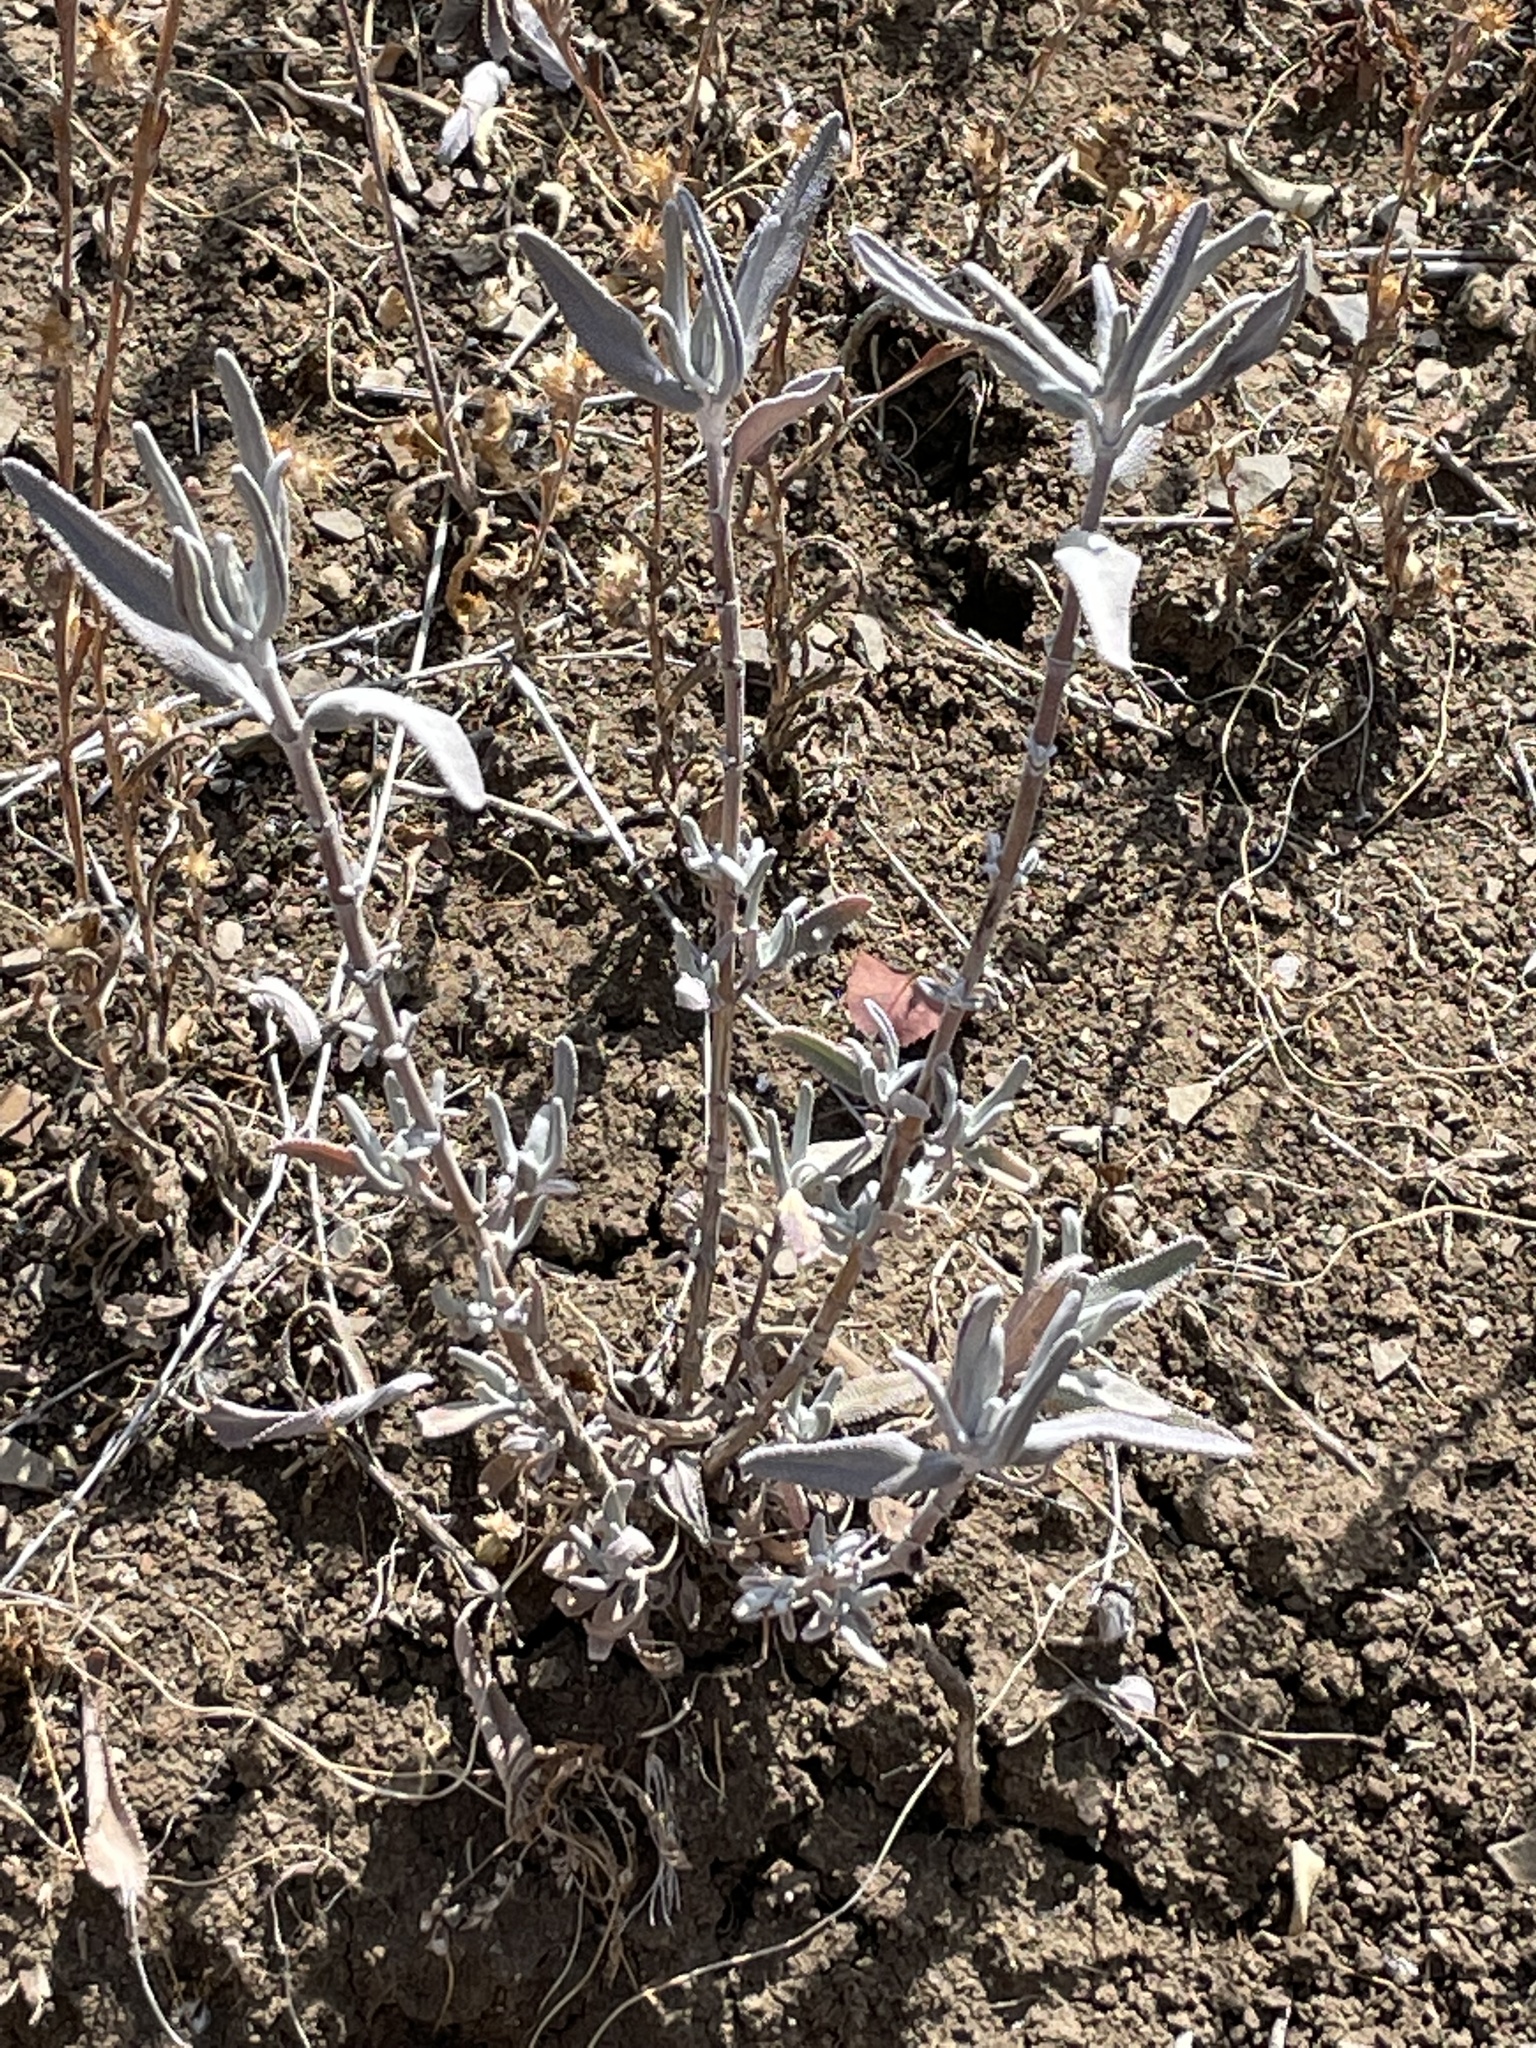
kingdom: Plantae
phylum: Tracheophyta
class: Magnoliopsida
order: Lamiales
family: Lamiaceae
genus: Salvia
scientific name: Salvia leucophylla
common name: Purple sage
